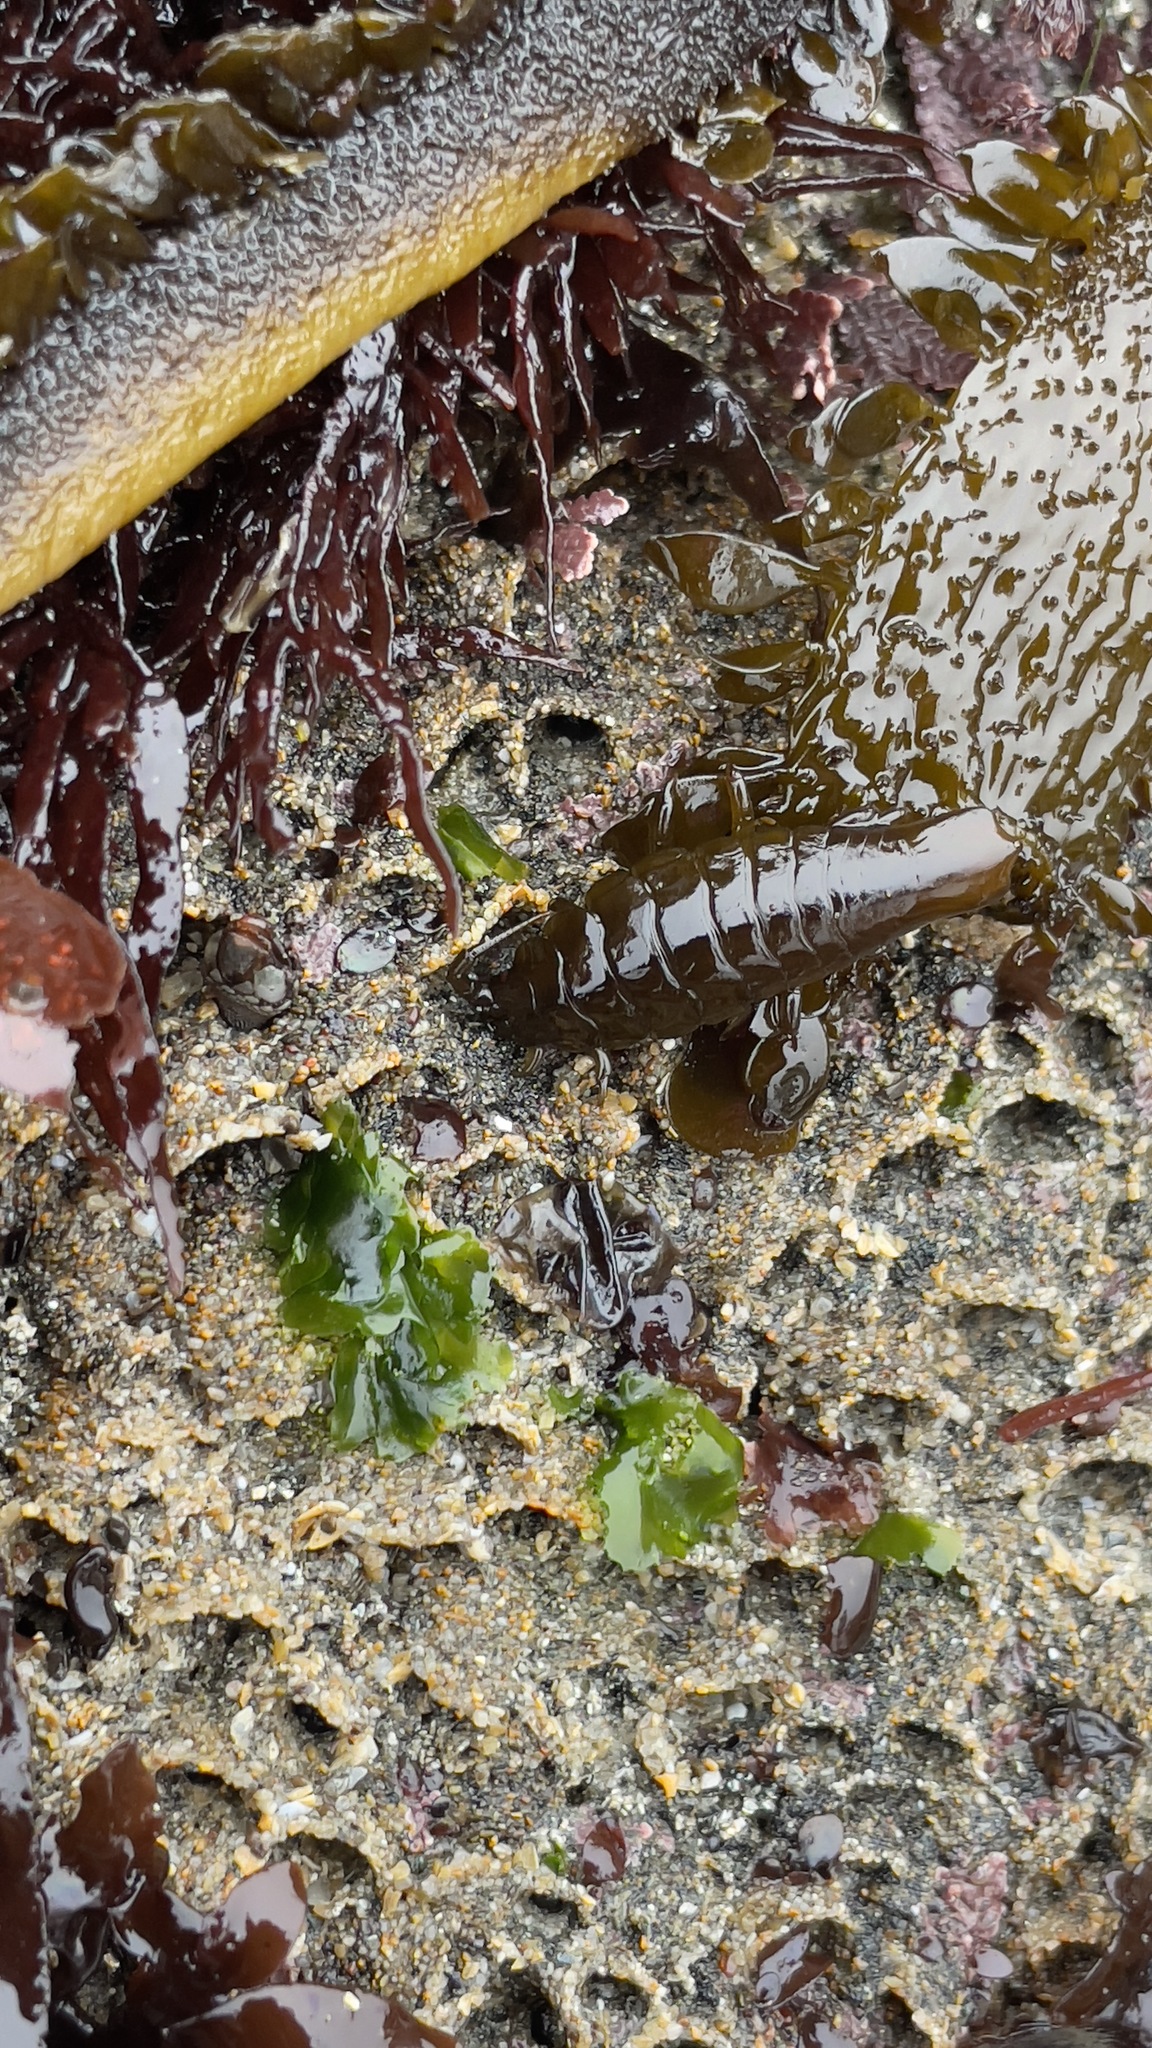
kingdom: Animalia
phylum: Arthropoda
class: Malacostraca
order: Isopoda
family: Idoteidae
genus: Pentidotea
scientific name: Pentidotea stenops
